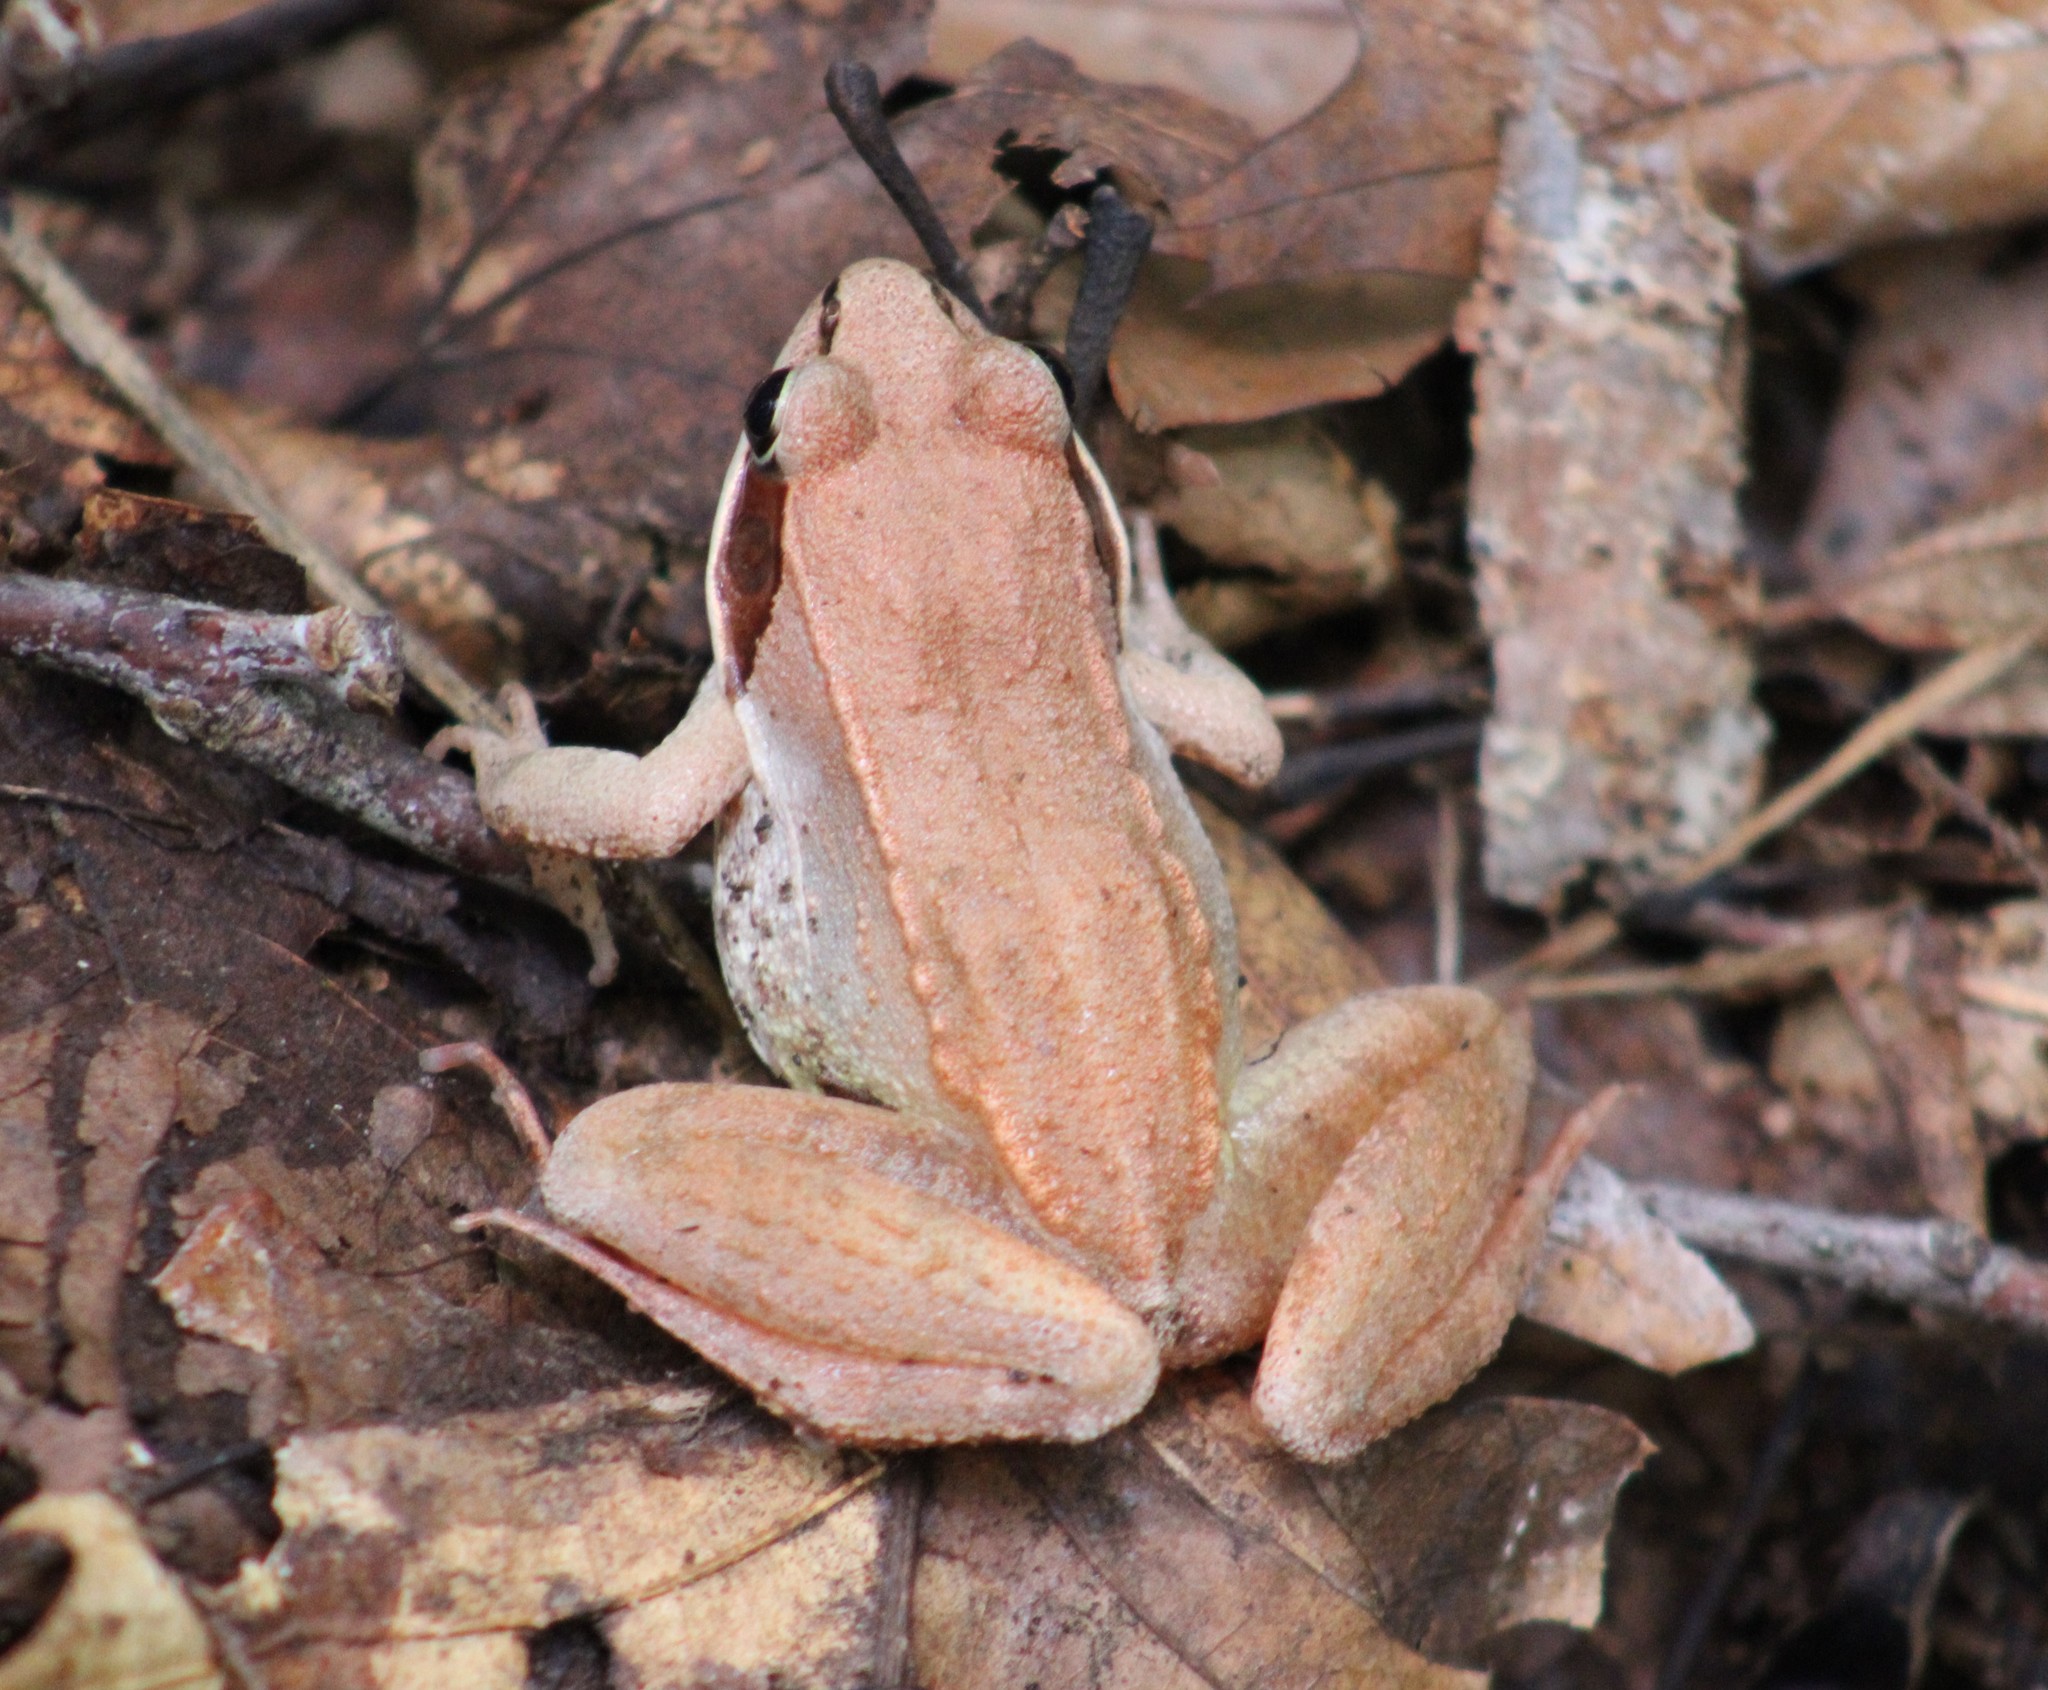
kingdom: Animalia
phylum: Chordata
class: Amphibia
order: Anura
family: Ranidae
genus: Lithobates
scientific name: Lithobates sylvaticus
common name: Wood frog
